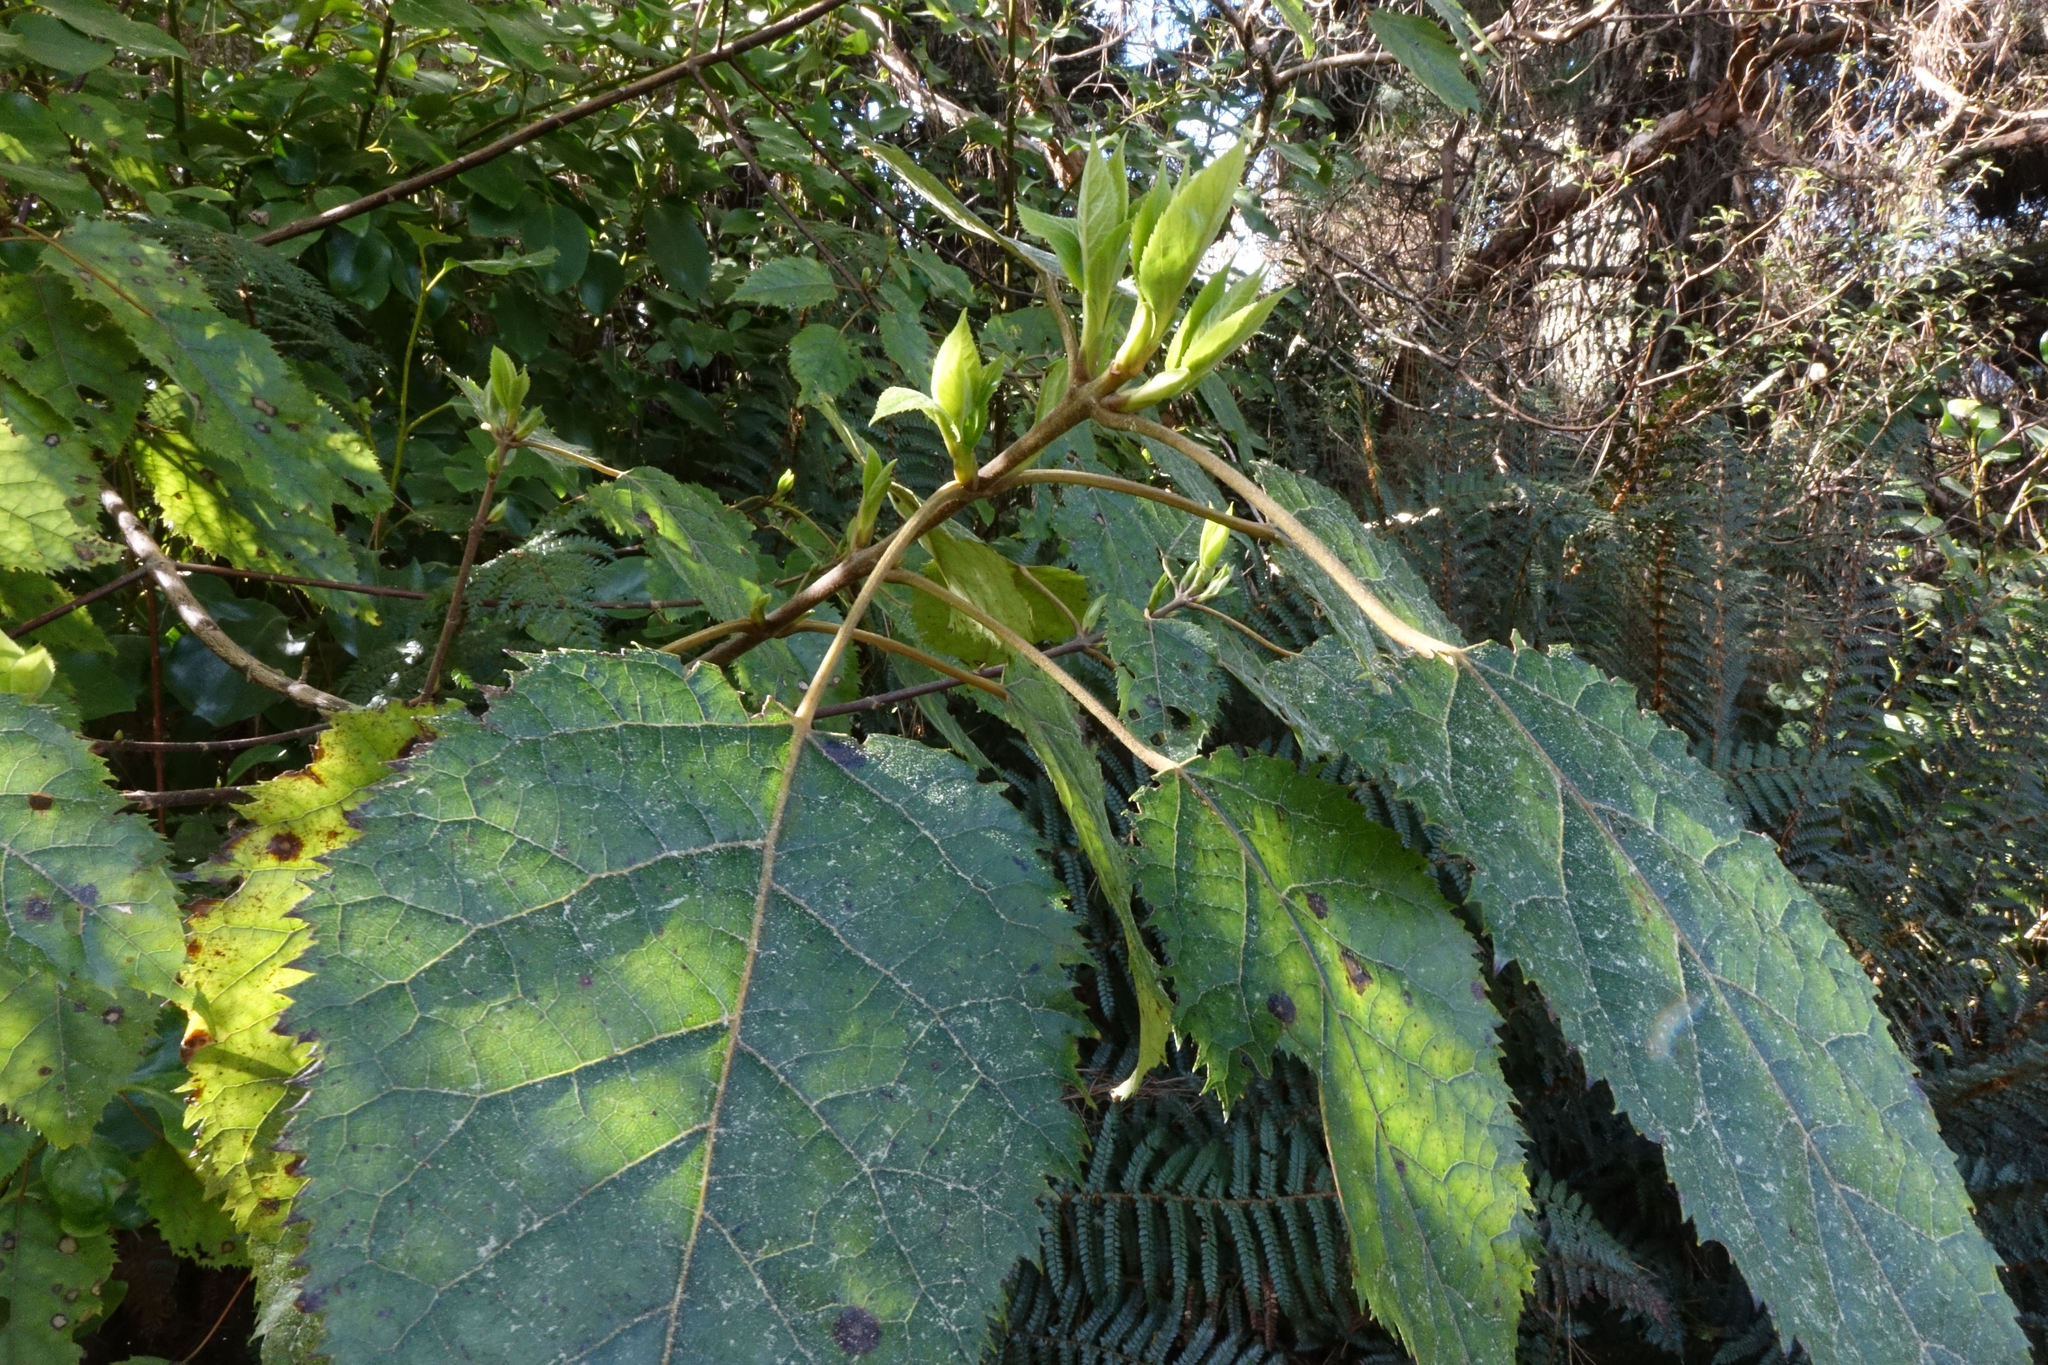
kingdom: Plantae
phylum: Tracheophyta
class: Magnoliopsida
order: Oxalidales
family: Elaeocarpaceae
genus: Aristotelia
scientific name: Aristotelia serrata
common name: New zealand wineberry
